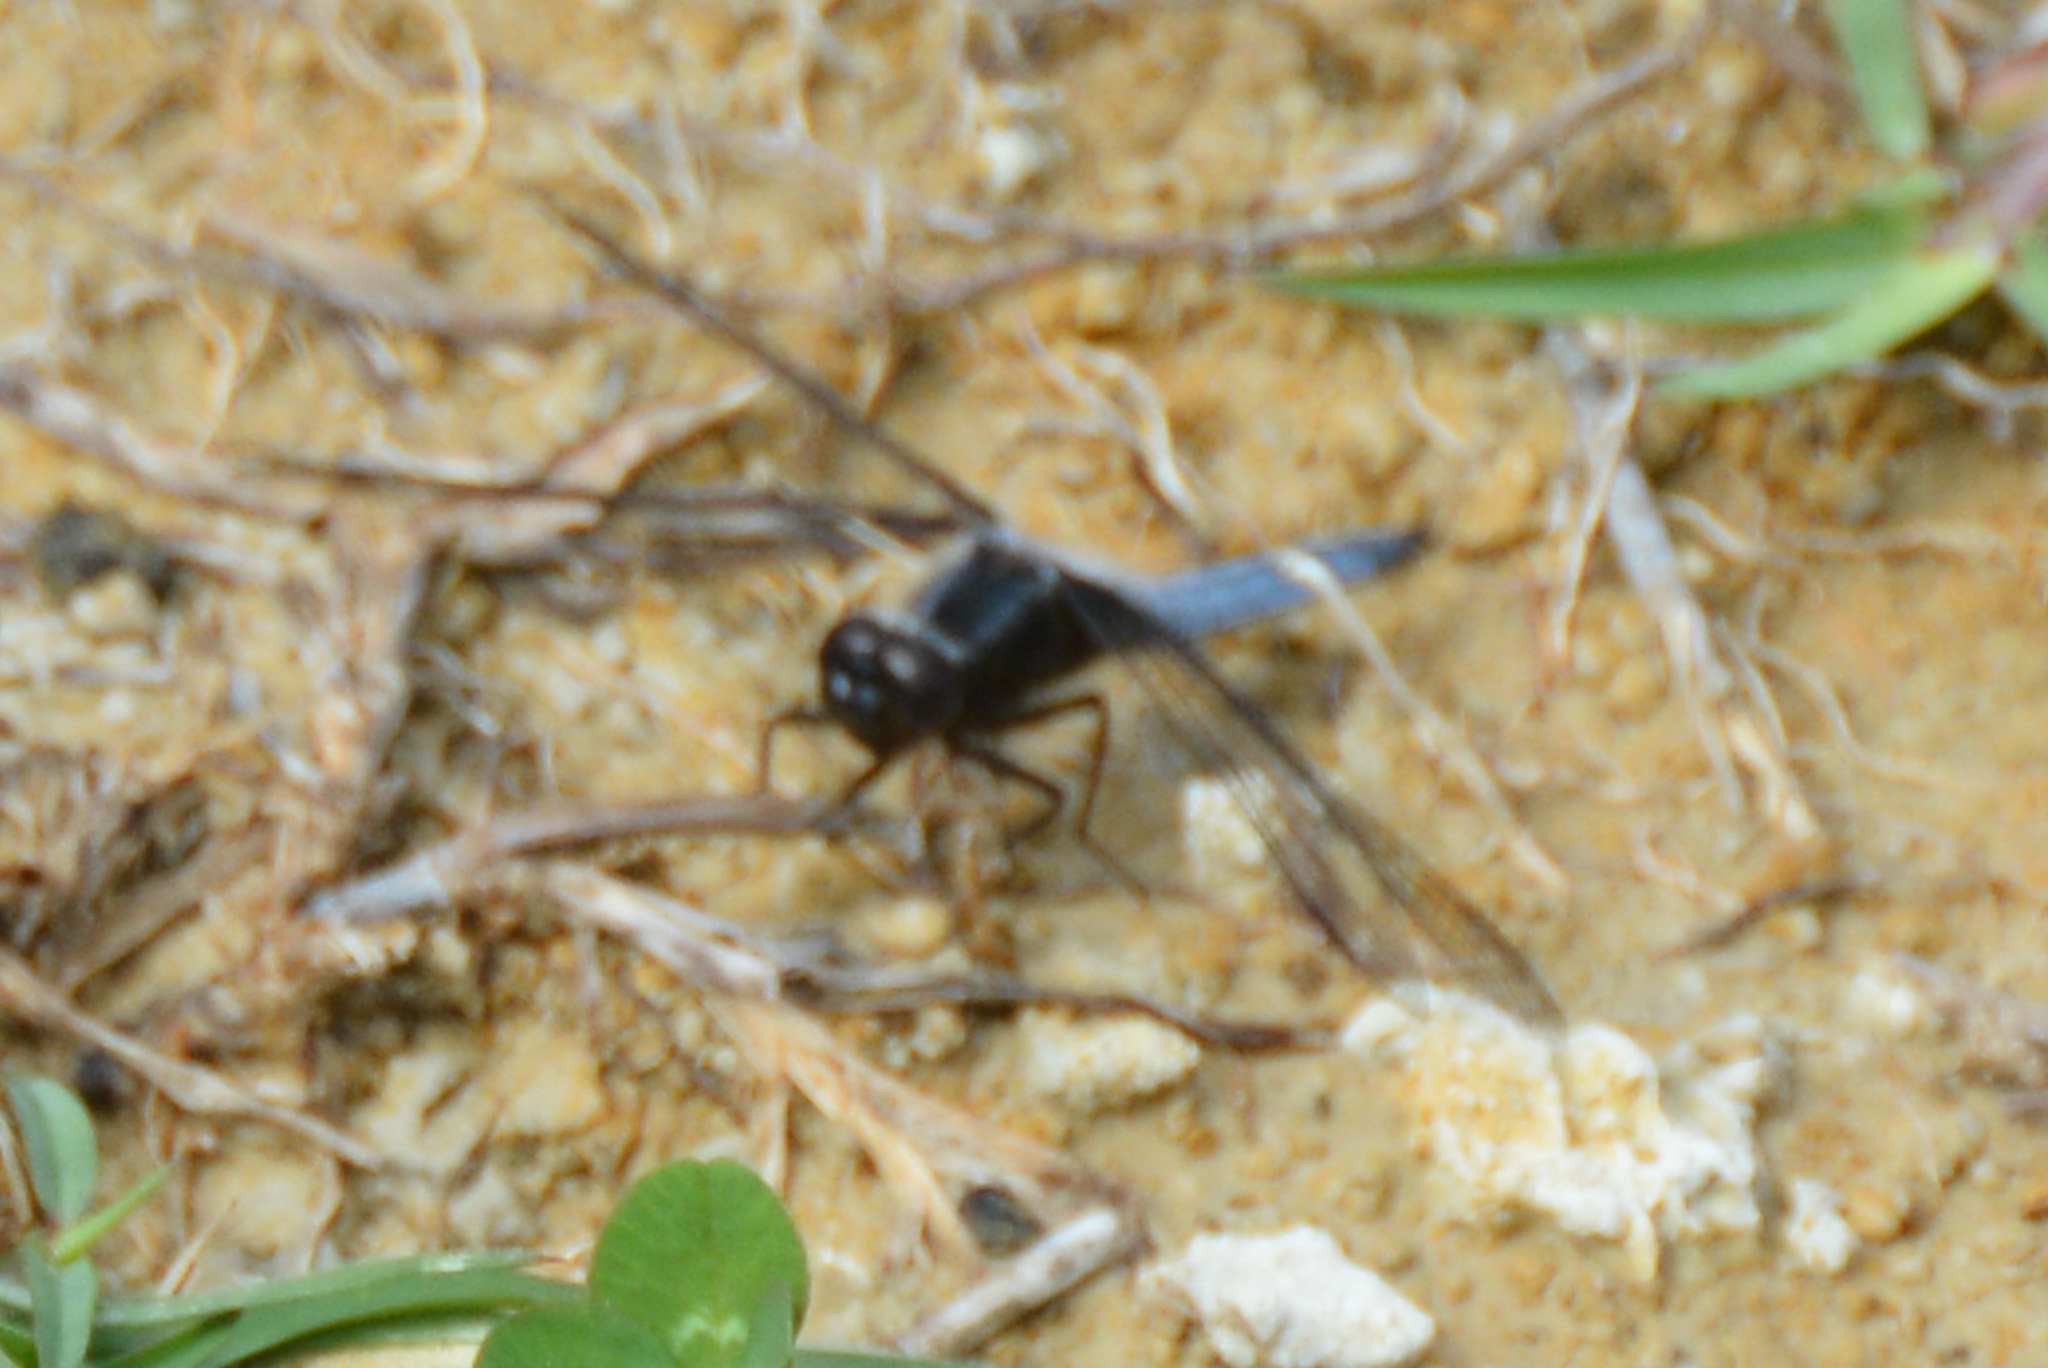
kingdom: Animalia
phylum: Arthropoda
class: Insecta
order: Odonata
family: Libellulidae
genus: Ladona
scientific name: Ladona deplanata
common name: Blue corporal
